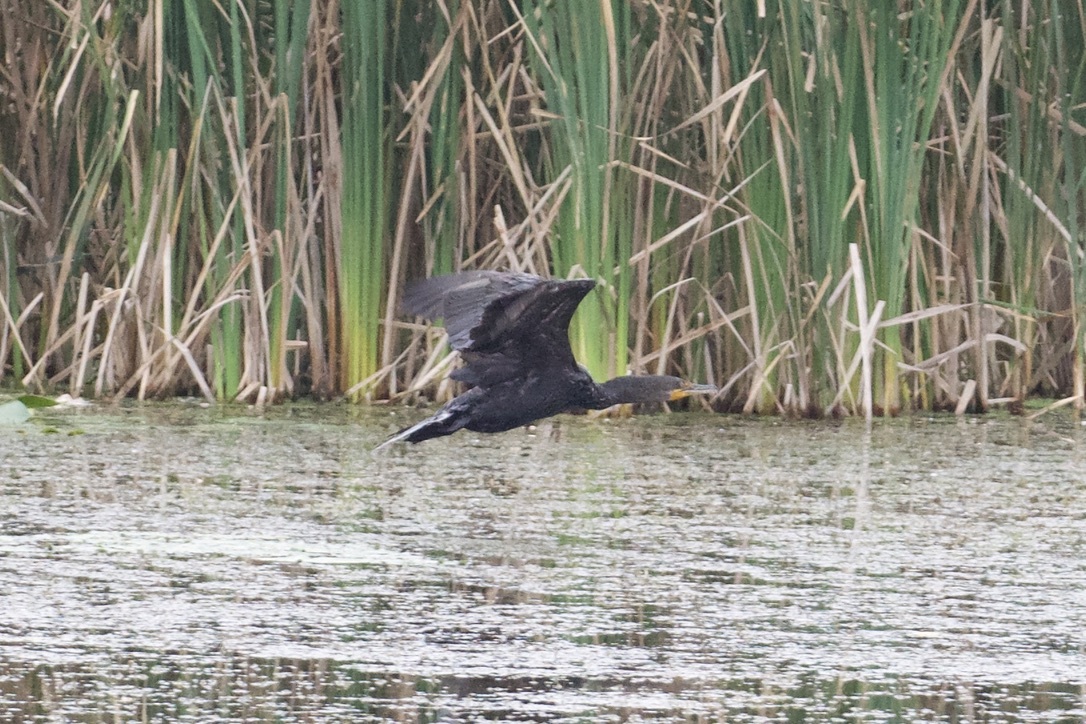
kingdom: Animalia
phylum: Chordata
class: Aves
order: Suliformes
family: Phalacrocoracidae
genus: Phalacrocorax
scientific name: Phalacrocorax auritus
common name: Double-crested cormorant
